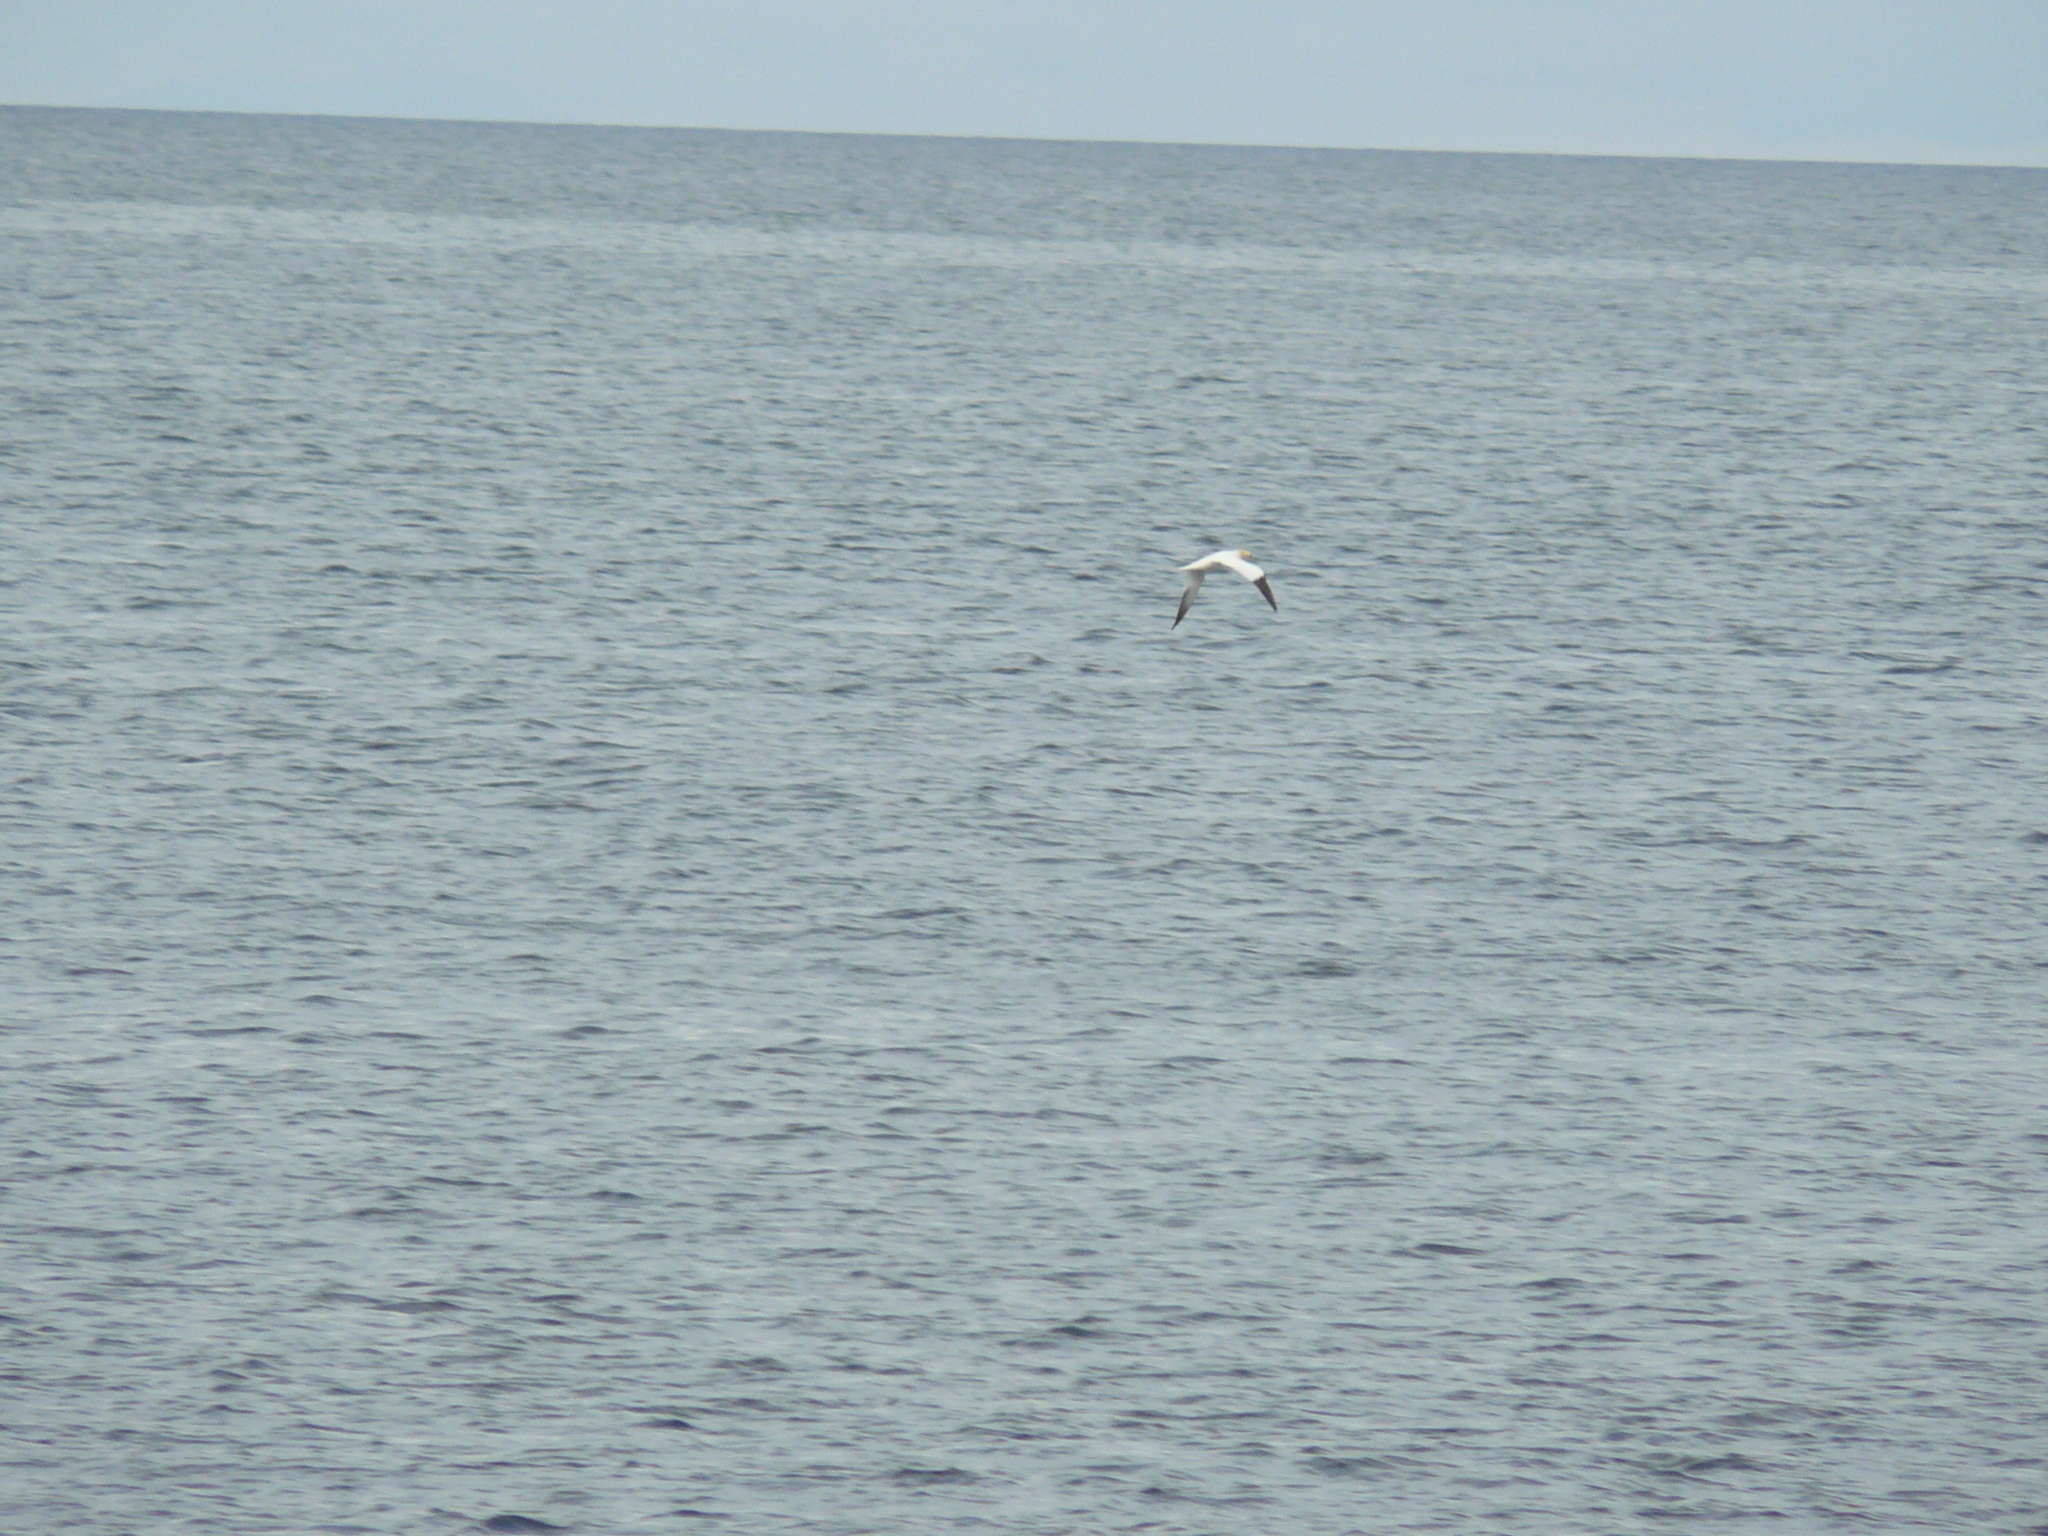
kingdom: Animalia
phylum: Chordata
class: Aves
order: Suliformes
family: Sulidae
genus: Morus
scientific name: Morus bassanus
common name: Northern gannet
